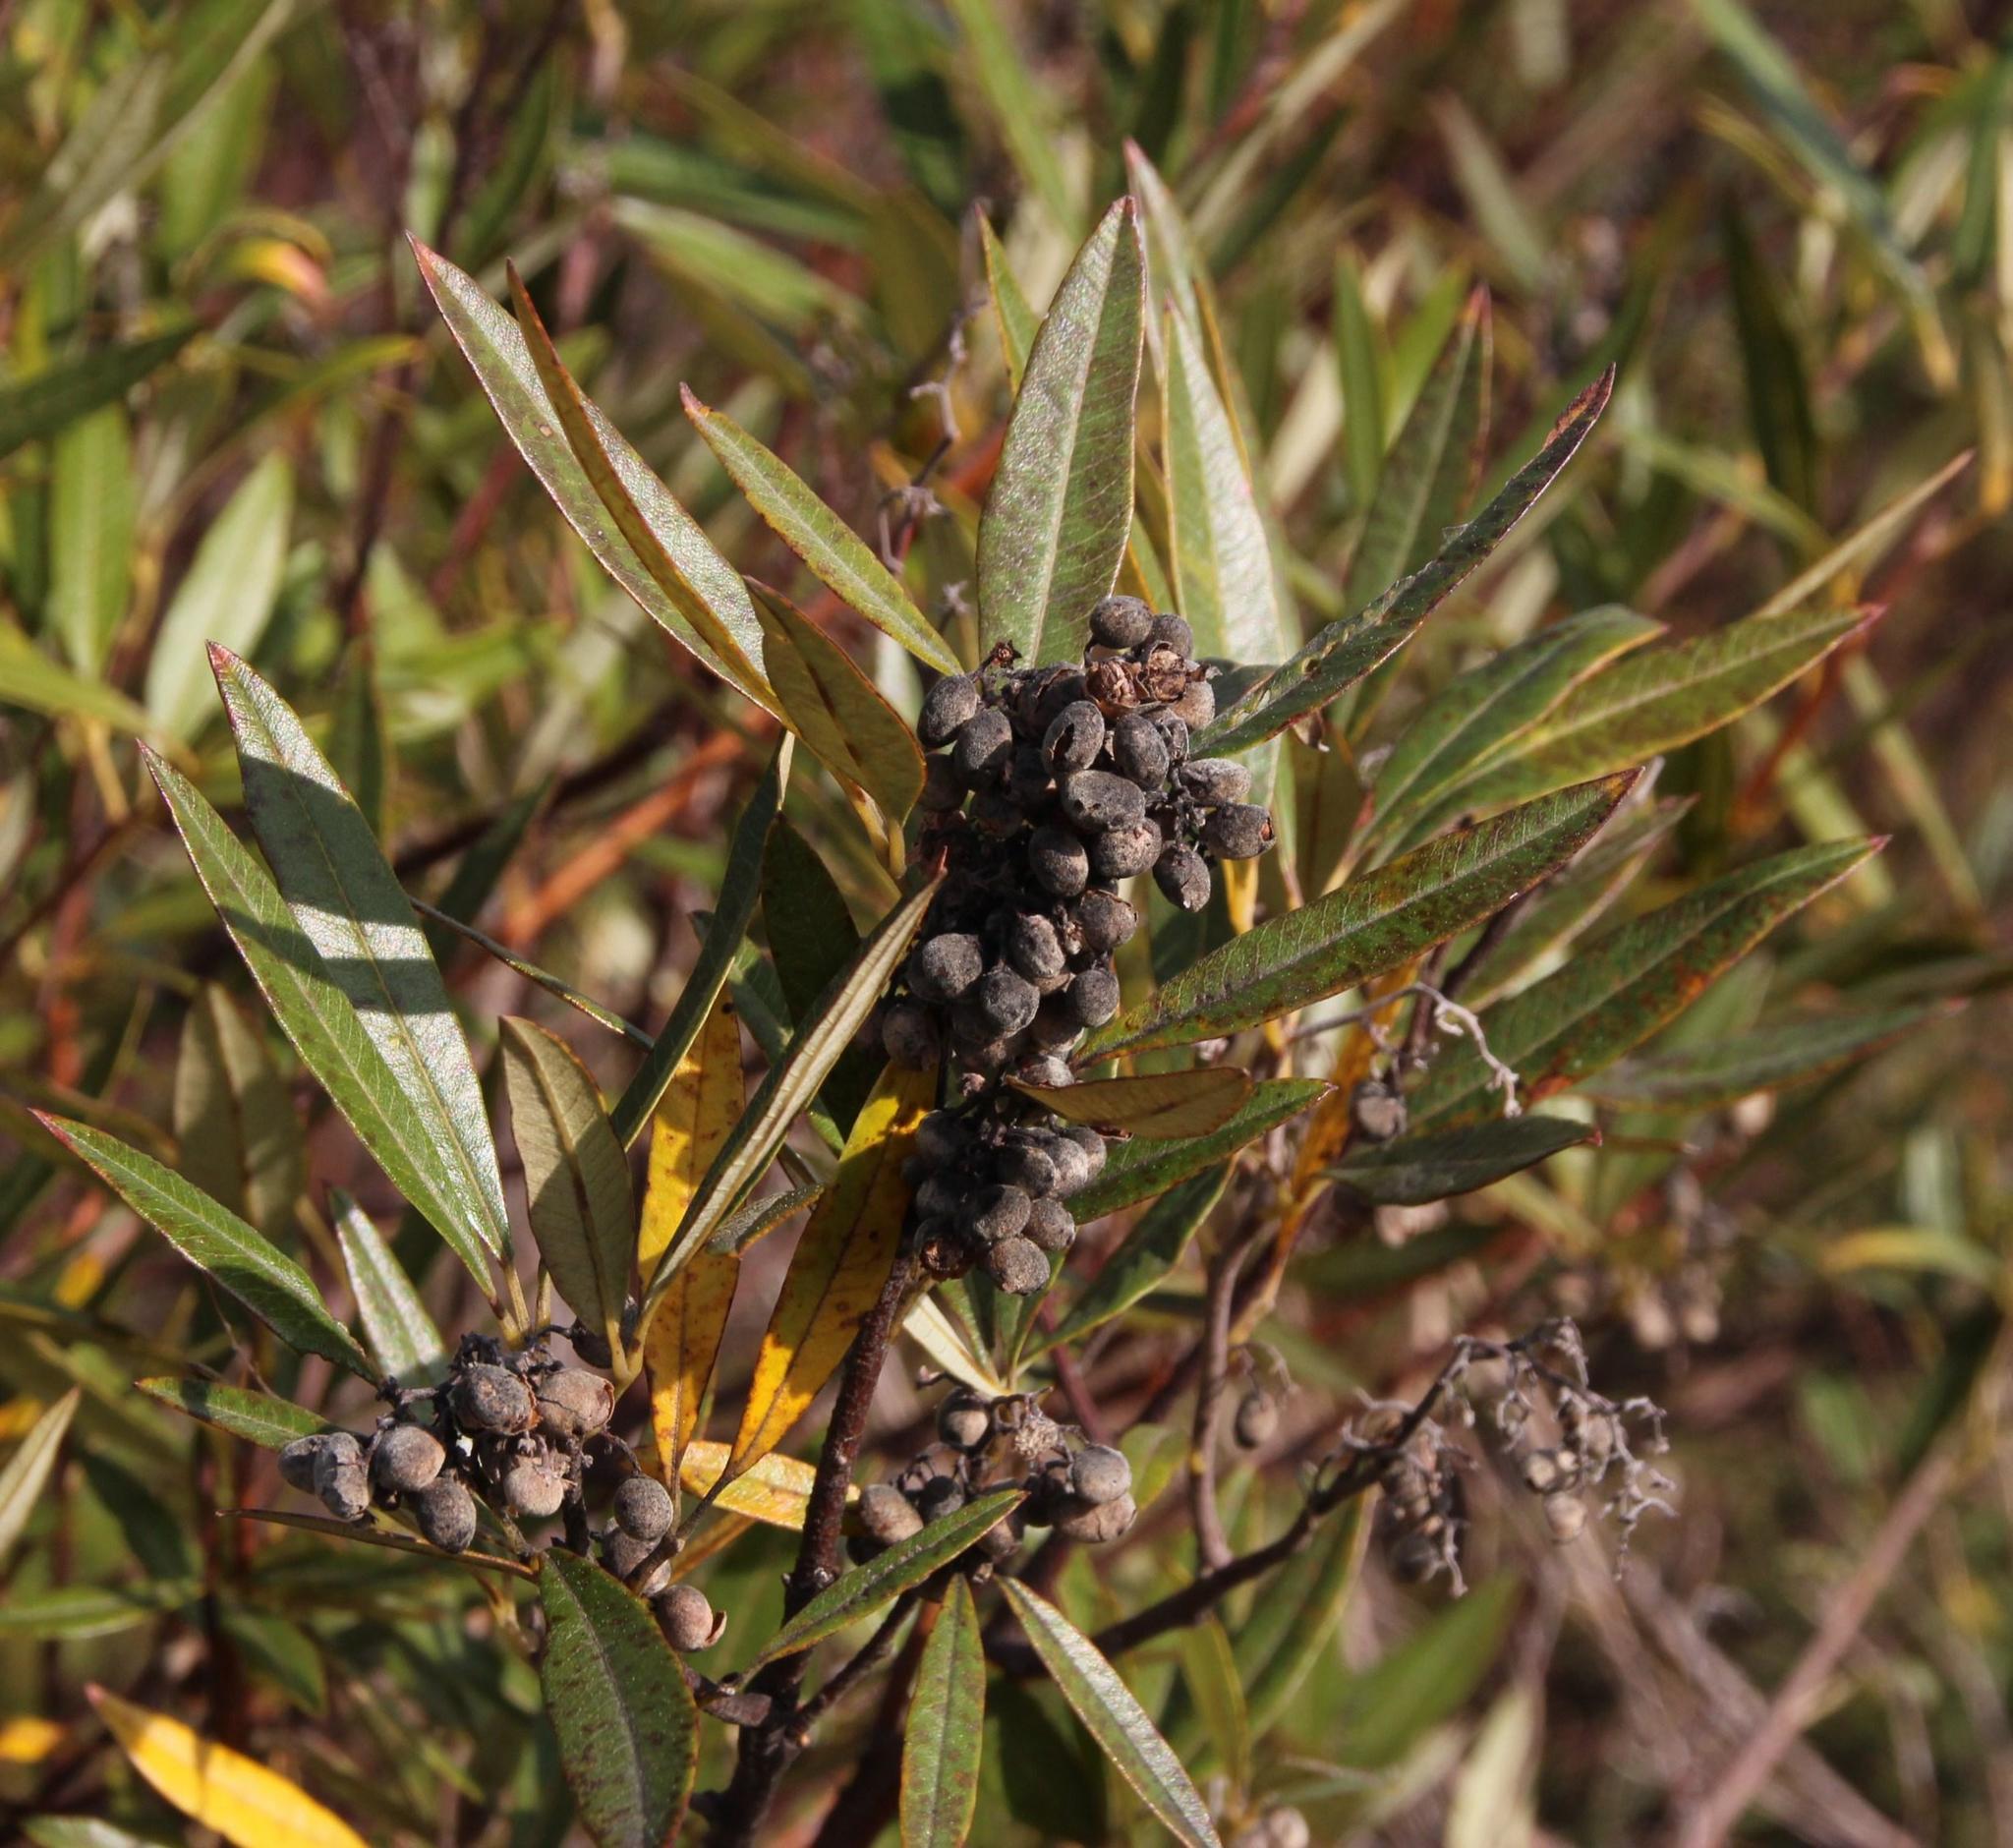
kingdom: Plantae
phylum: Tracheophyta
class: Magnoliopsida
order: Sapindales
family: Anacardiaceae
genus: Searsia
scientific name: Searsia angustifolia
